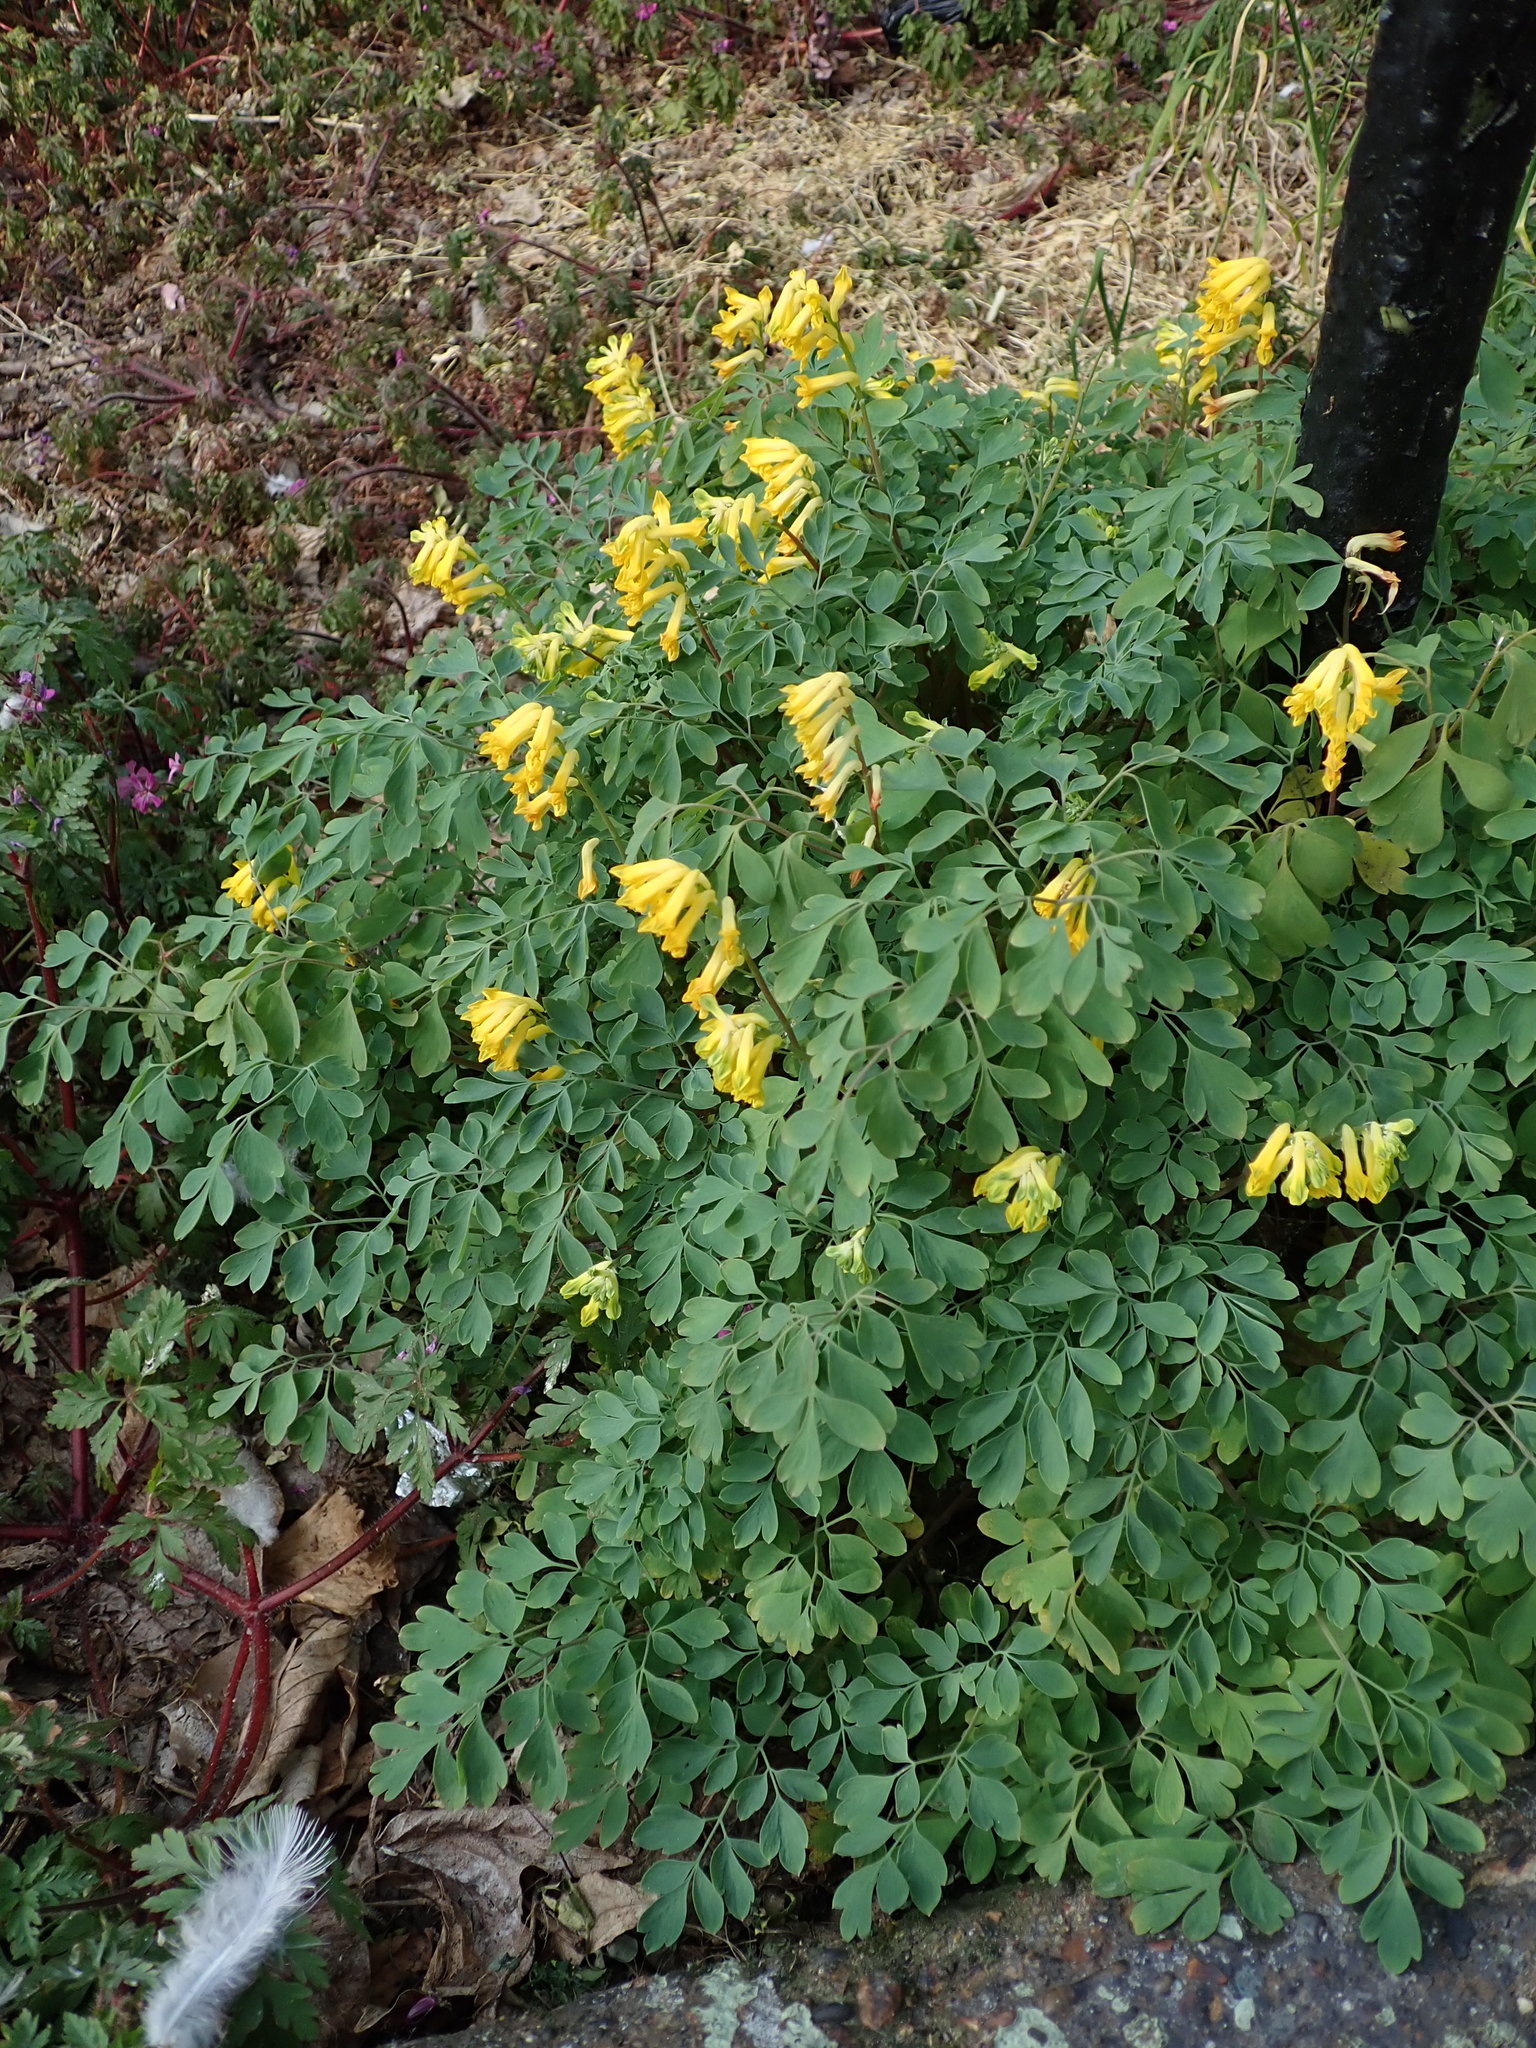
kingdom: Plantae
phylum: Tracheophyta
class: Magnoliopsida
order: Ranunculales
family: Papaveraceae
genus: Pseudofumaria
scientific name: Pseudofumaria lutea
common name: Yellow corydalis
